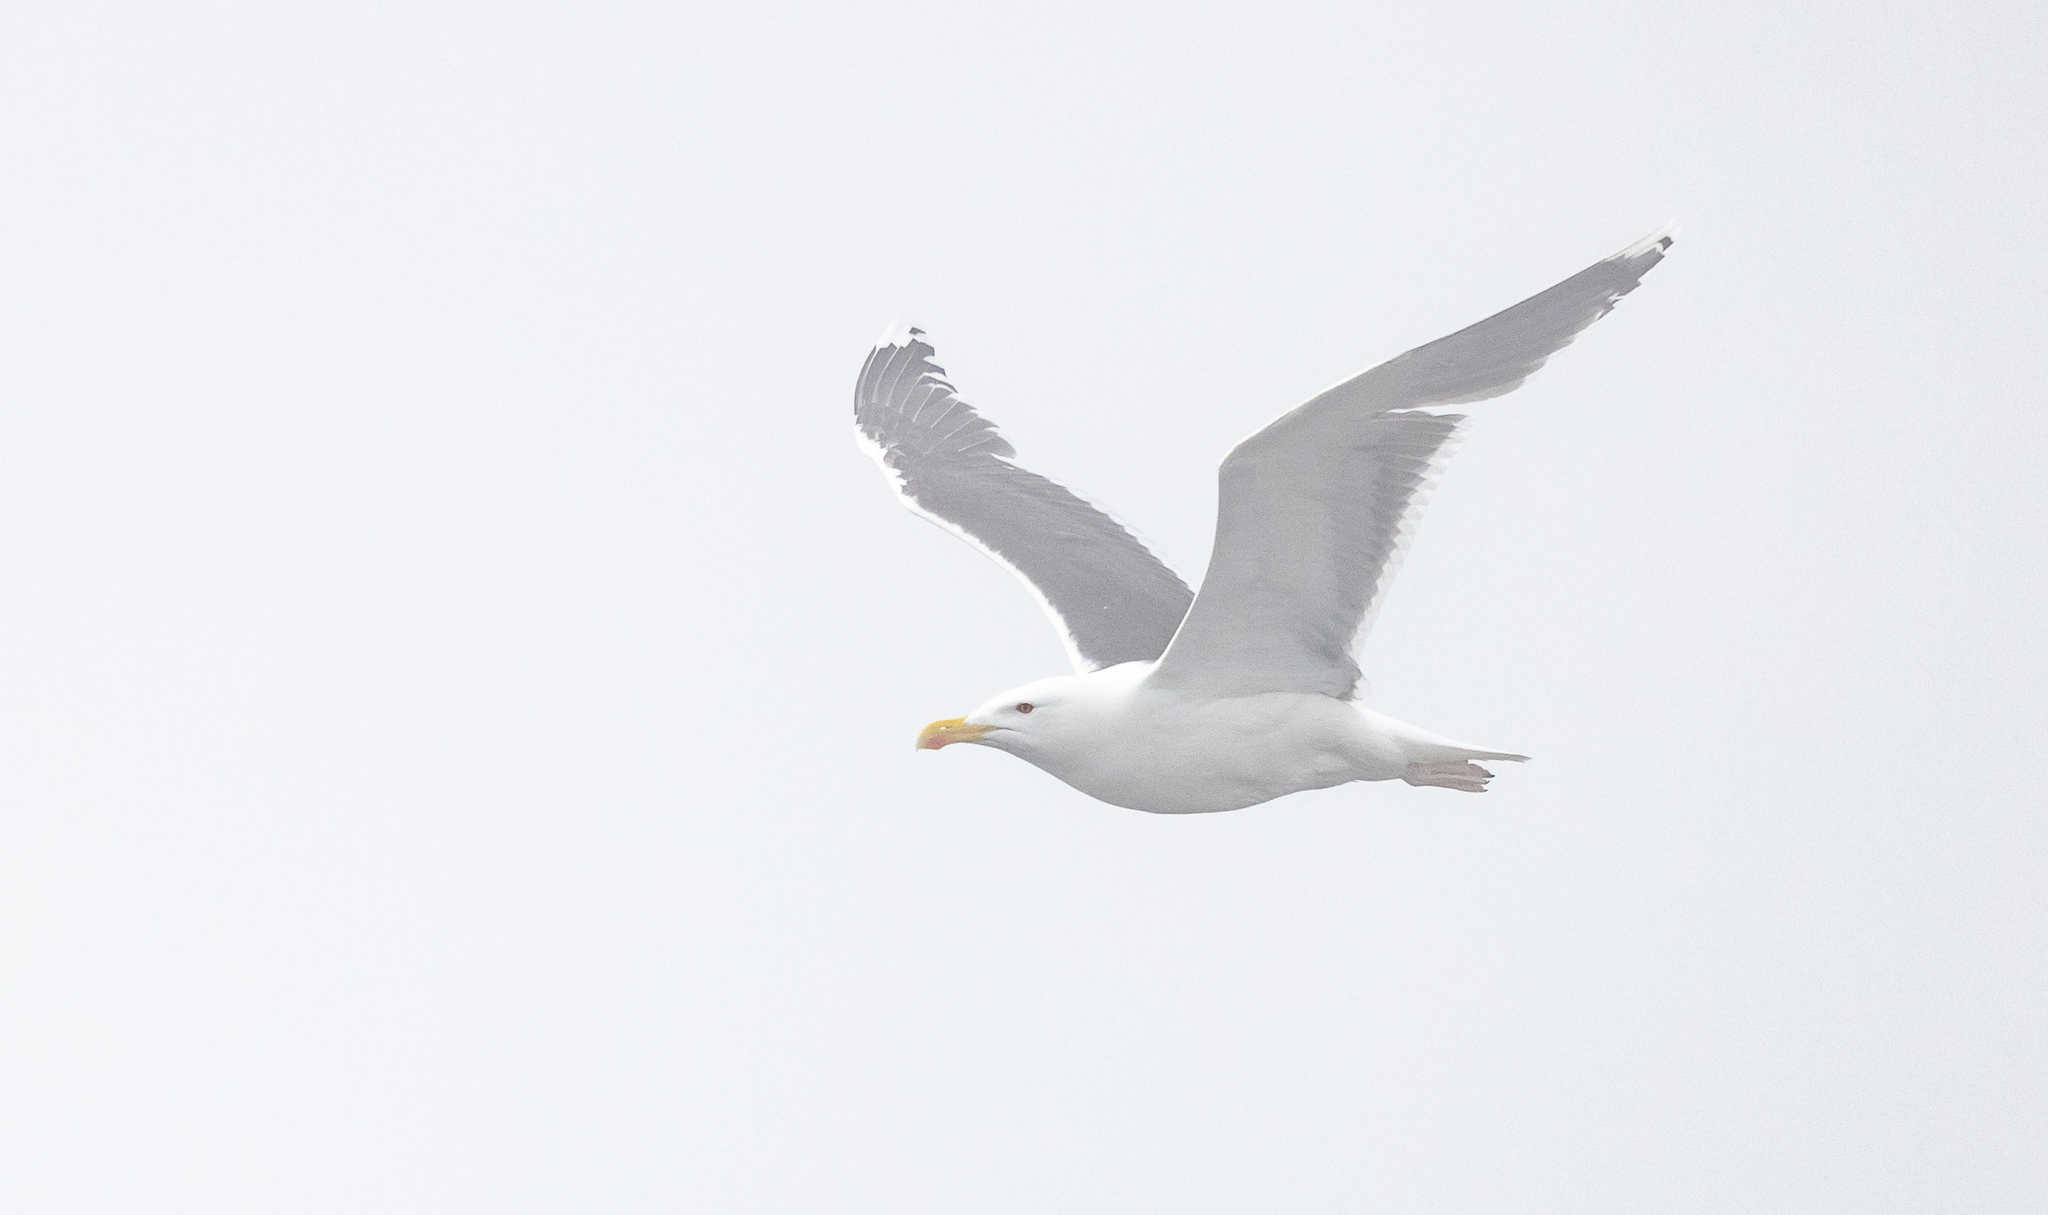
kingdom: Animalia
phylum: Chordata
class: Aves
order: Charadriiformes
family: Laridae
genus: Larus
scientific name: Larus marinus
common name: Great black-backed gull
